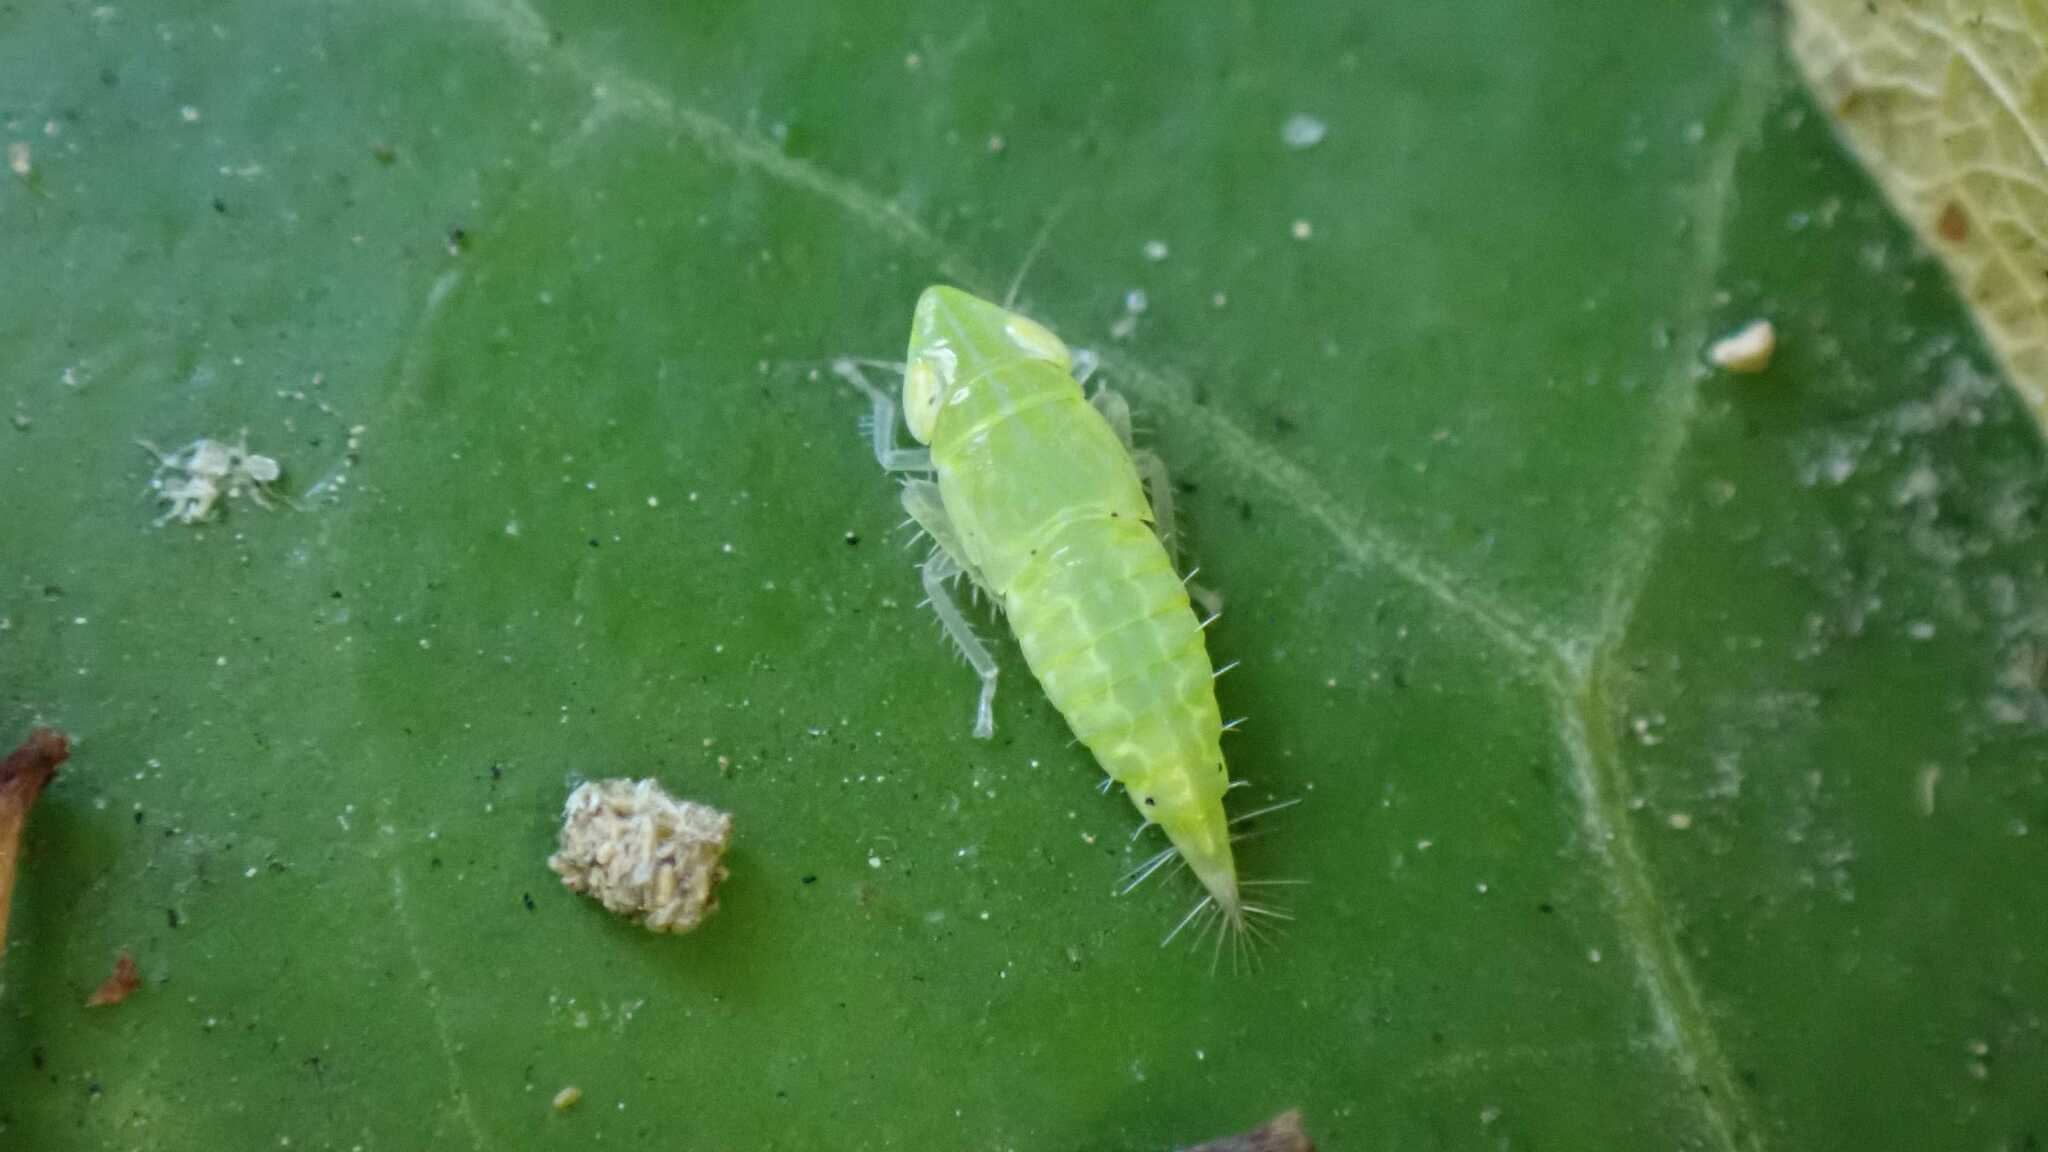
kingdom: Animalia
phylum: Arthropoda
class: Insecta
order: Hemiptera
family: Cicadellidae
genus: Synophropsis
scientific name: Synophropsis lauri
